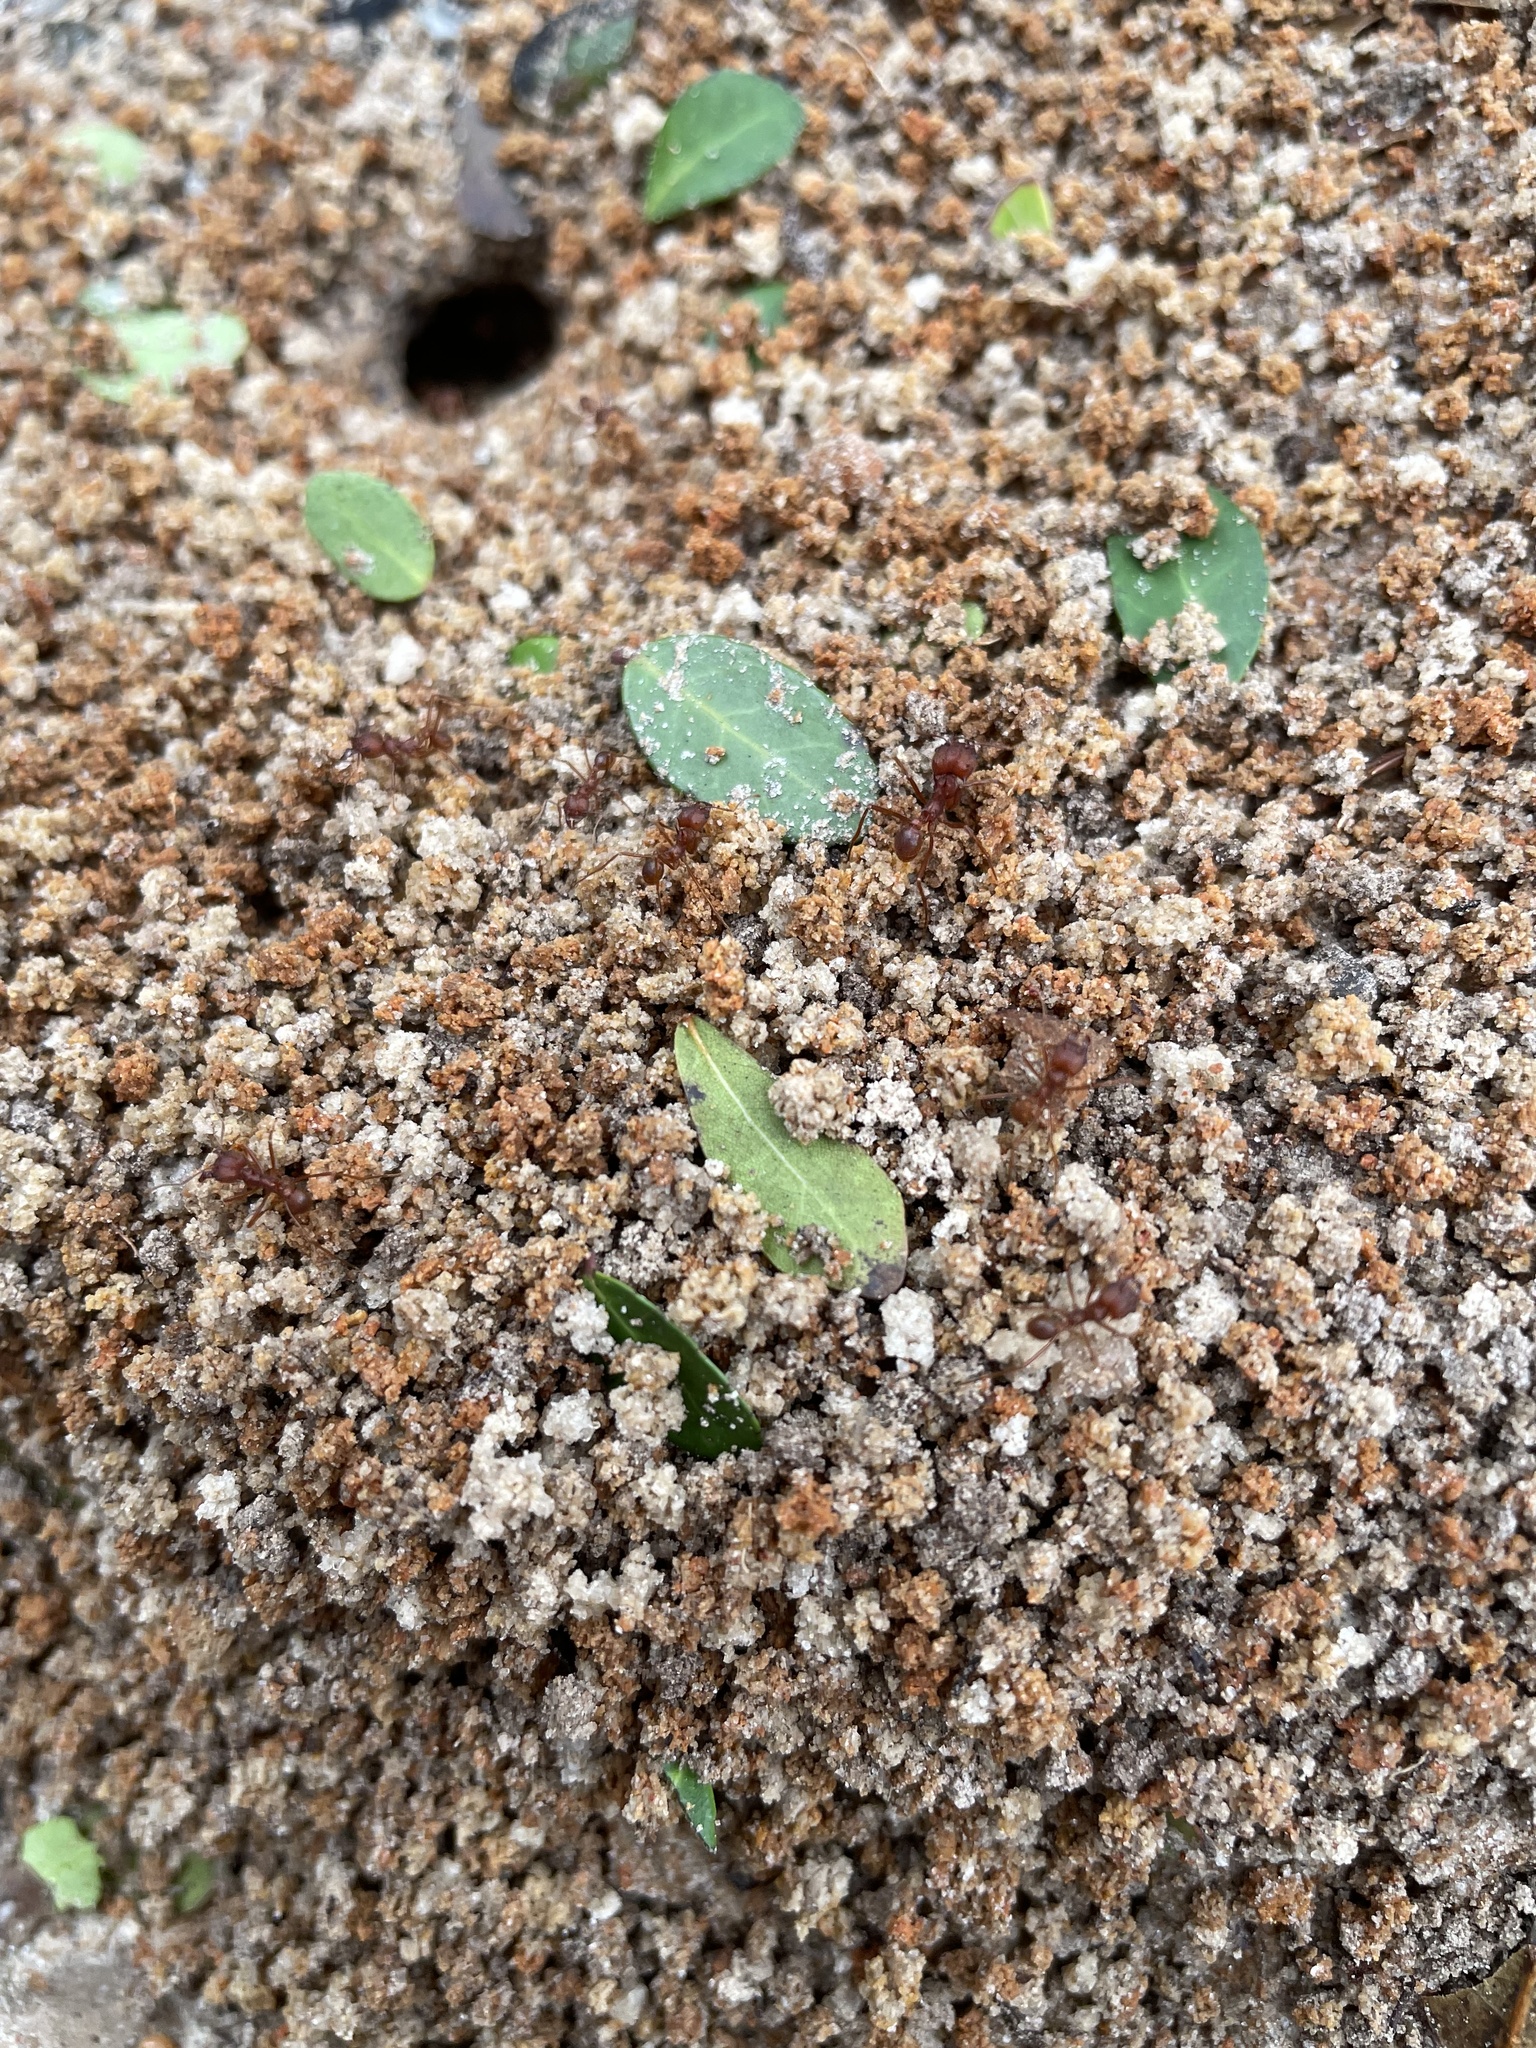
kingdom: Animalia
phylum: Arthropoda
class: Insecta
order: Hymenoptera
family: Formicidae
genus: Atta
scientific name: Atta texana
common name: Texas leafcutting ant
